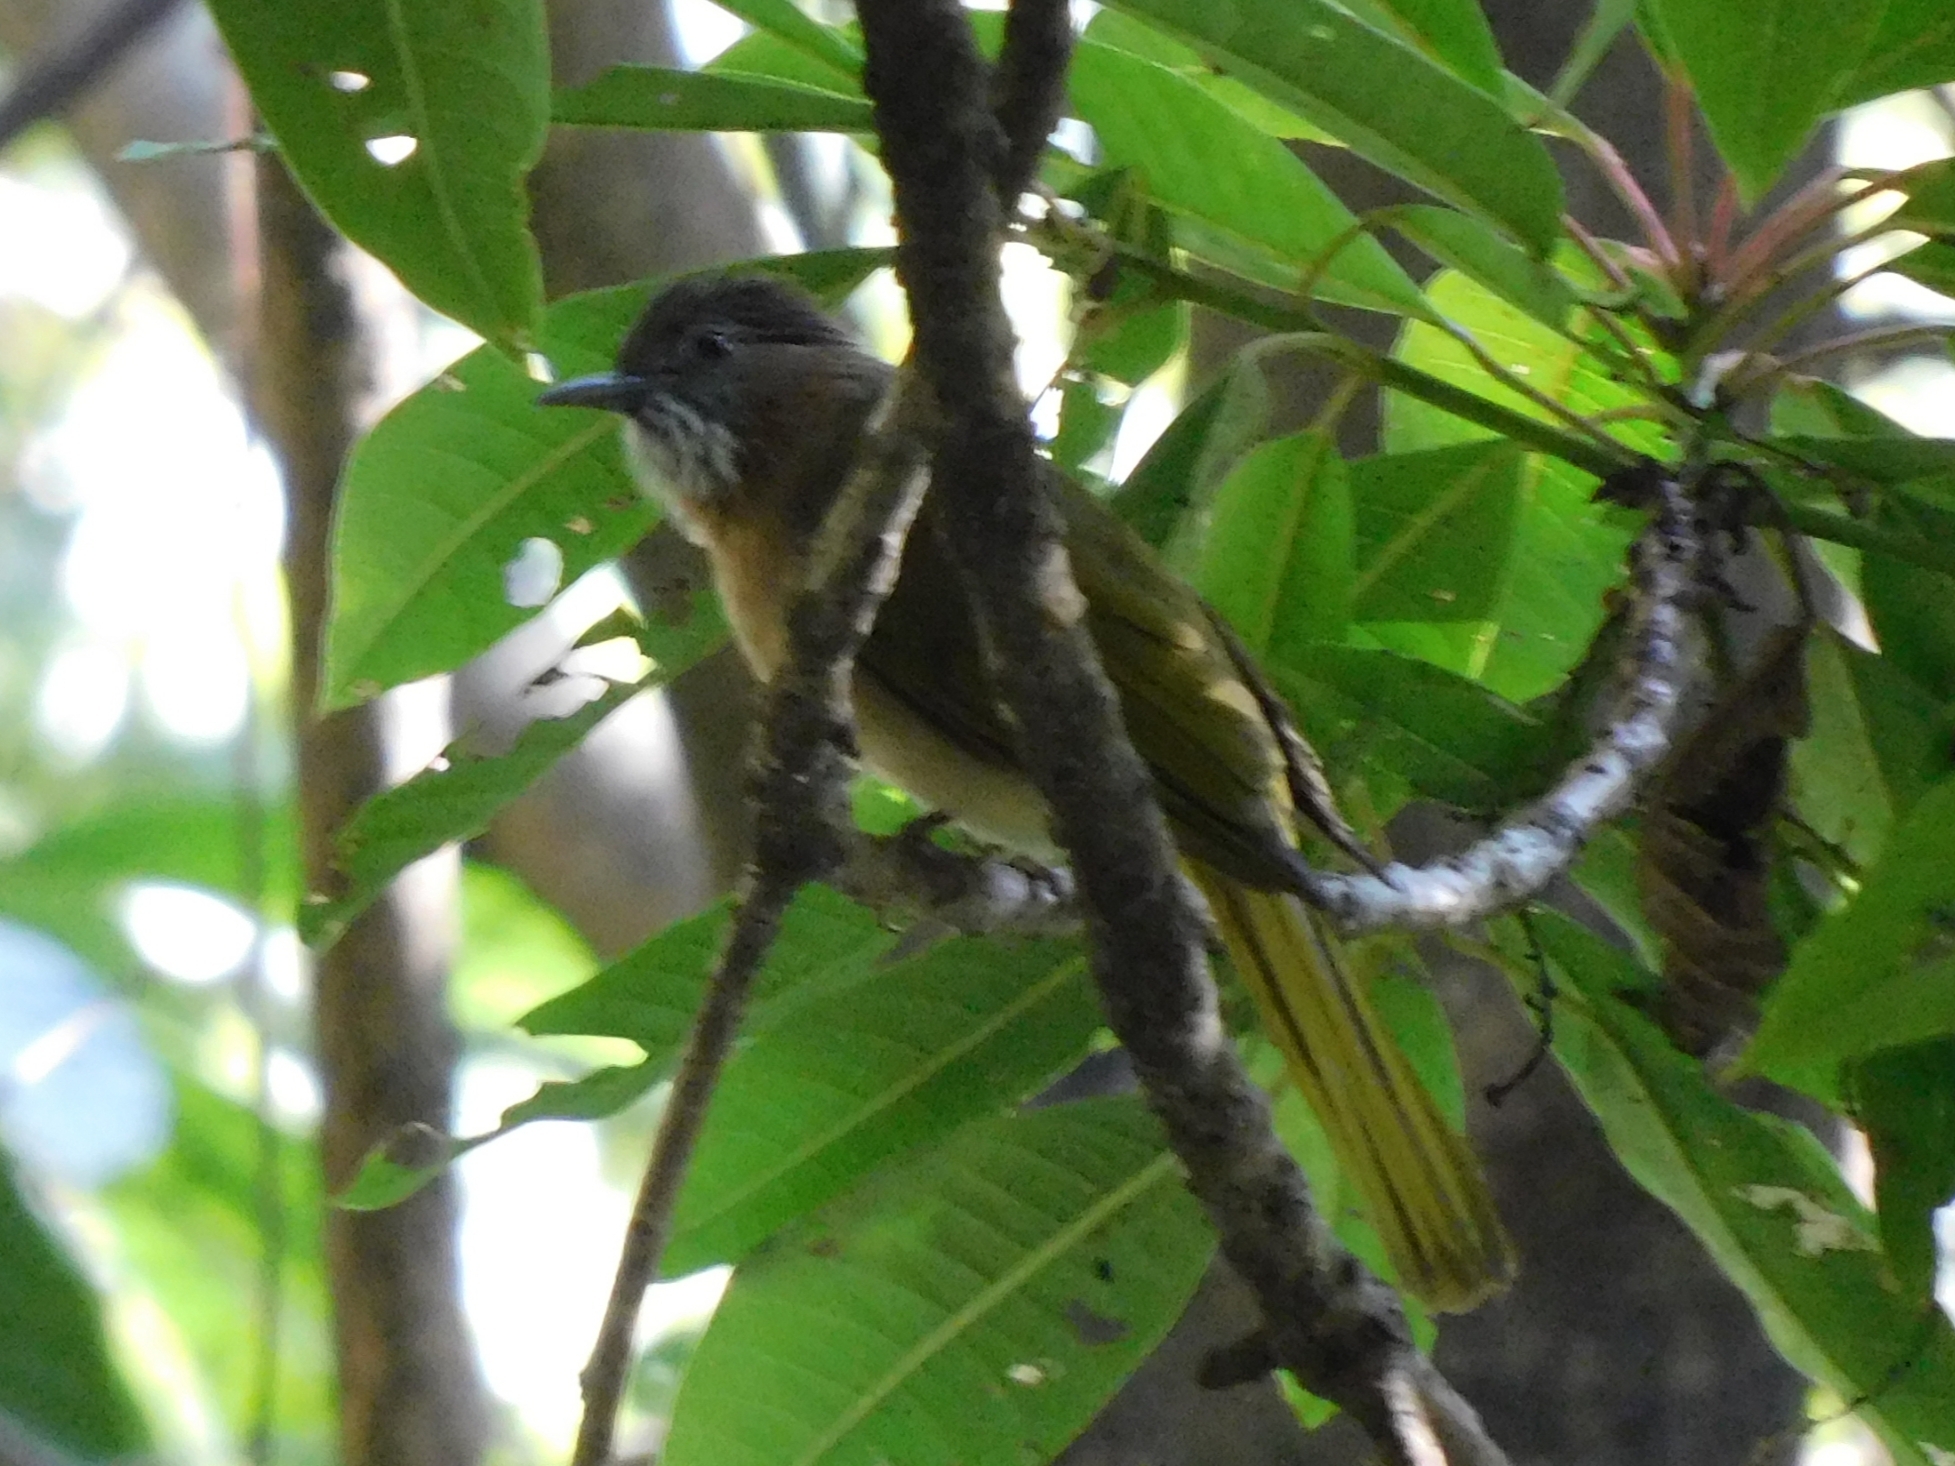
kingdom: Animalia
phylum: Chordata
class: Aves
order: Passeriformes
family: Pycnonotidae
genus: Ixos
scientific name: Ixos mcclellandii
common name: Mountain bulbul
